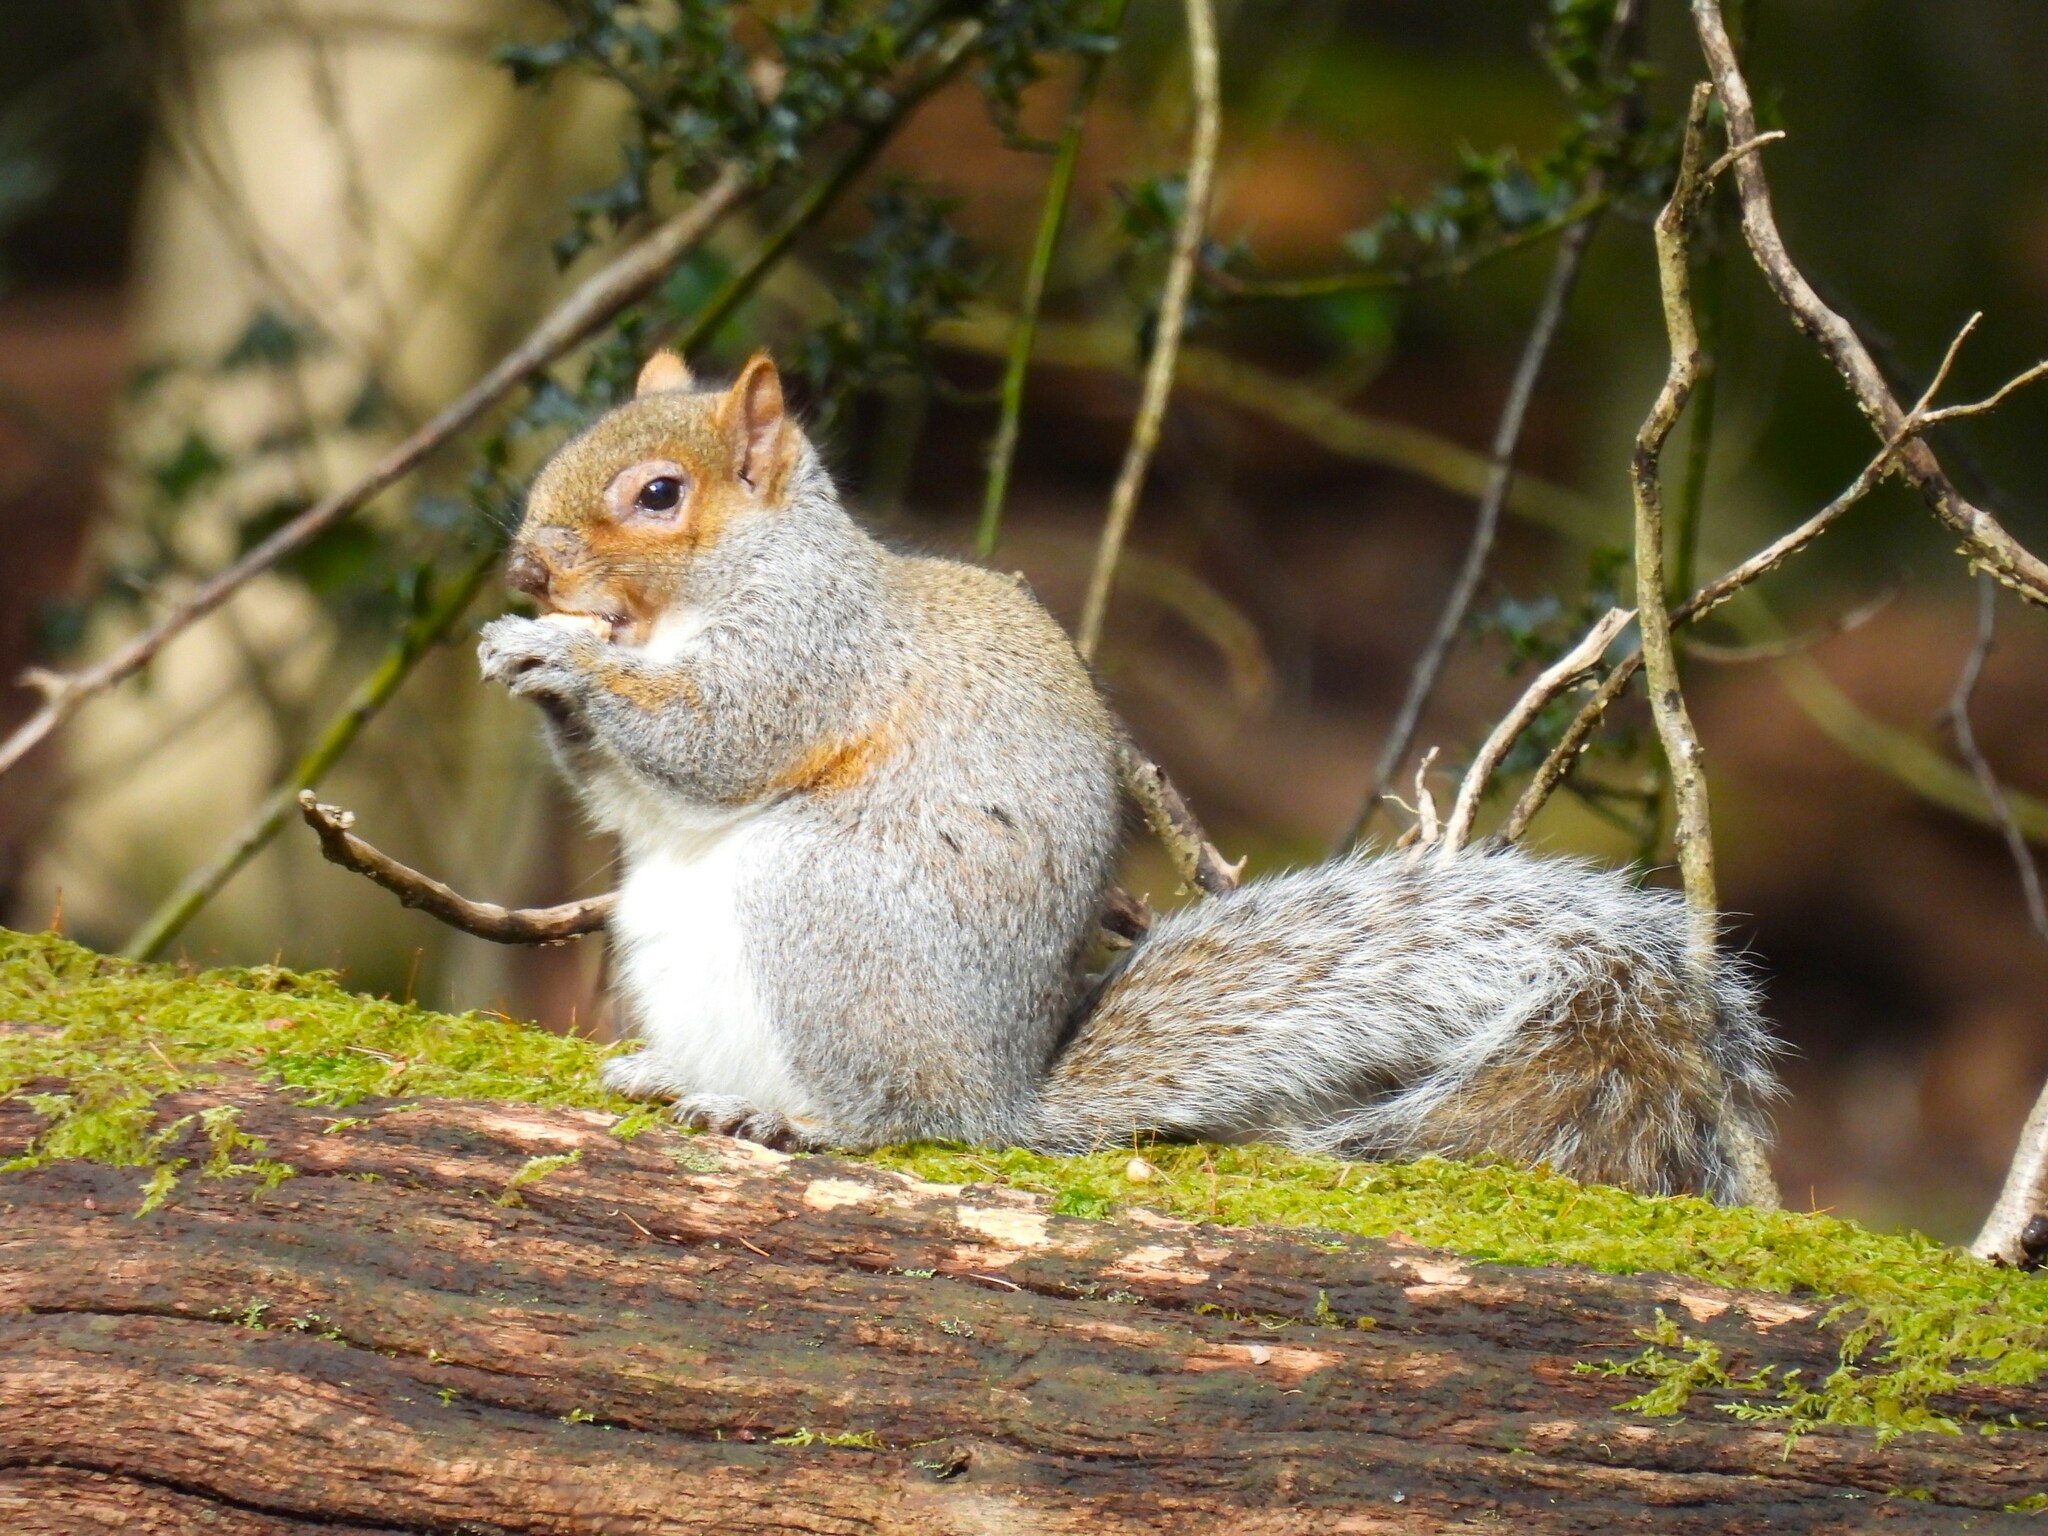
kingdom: Animalia
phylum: Chordata
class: Mammalia
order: Rodentia
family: Sciuridae
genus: Sciurus
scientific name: Sciurus carolinensis
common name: Eastern gray squirrel
